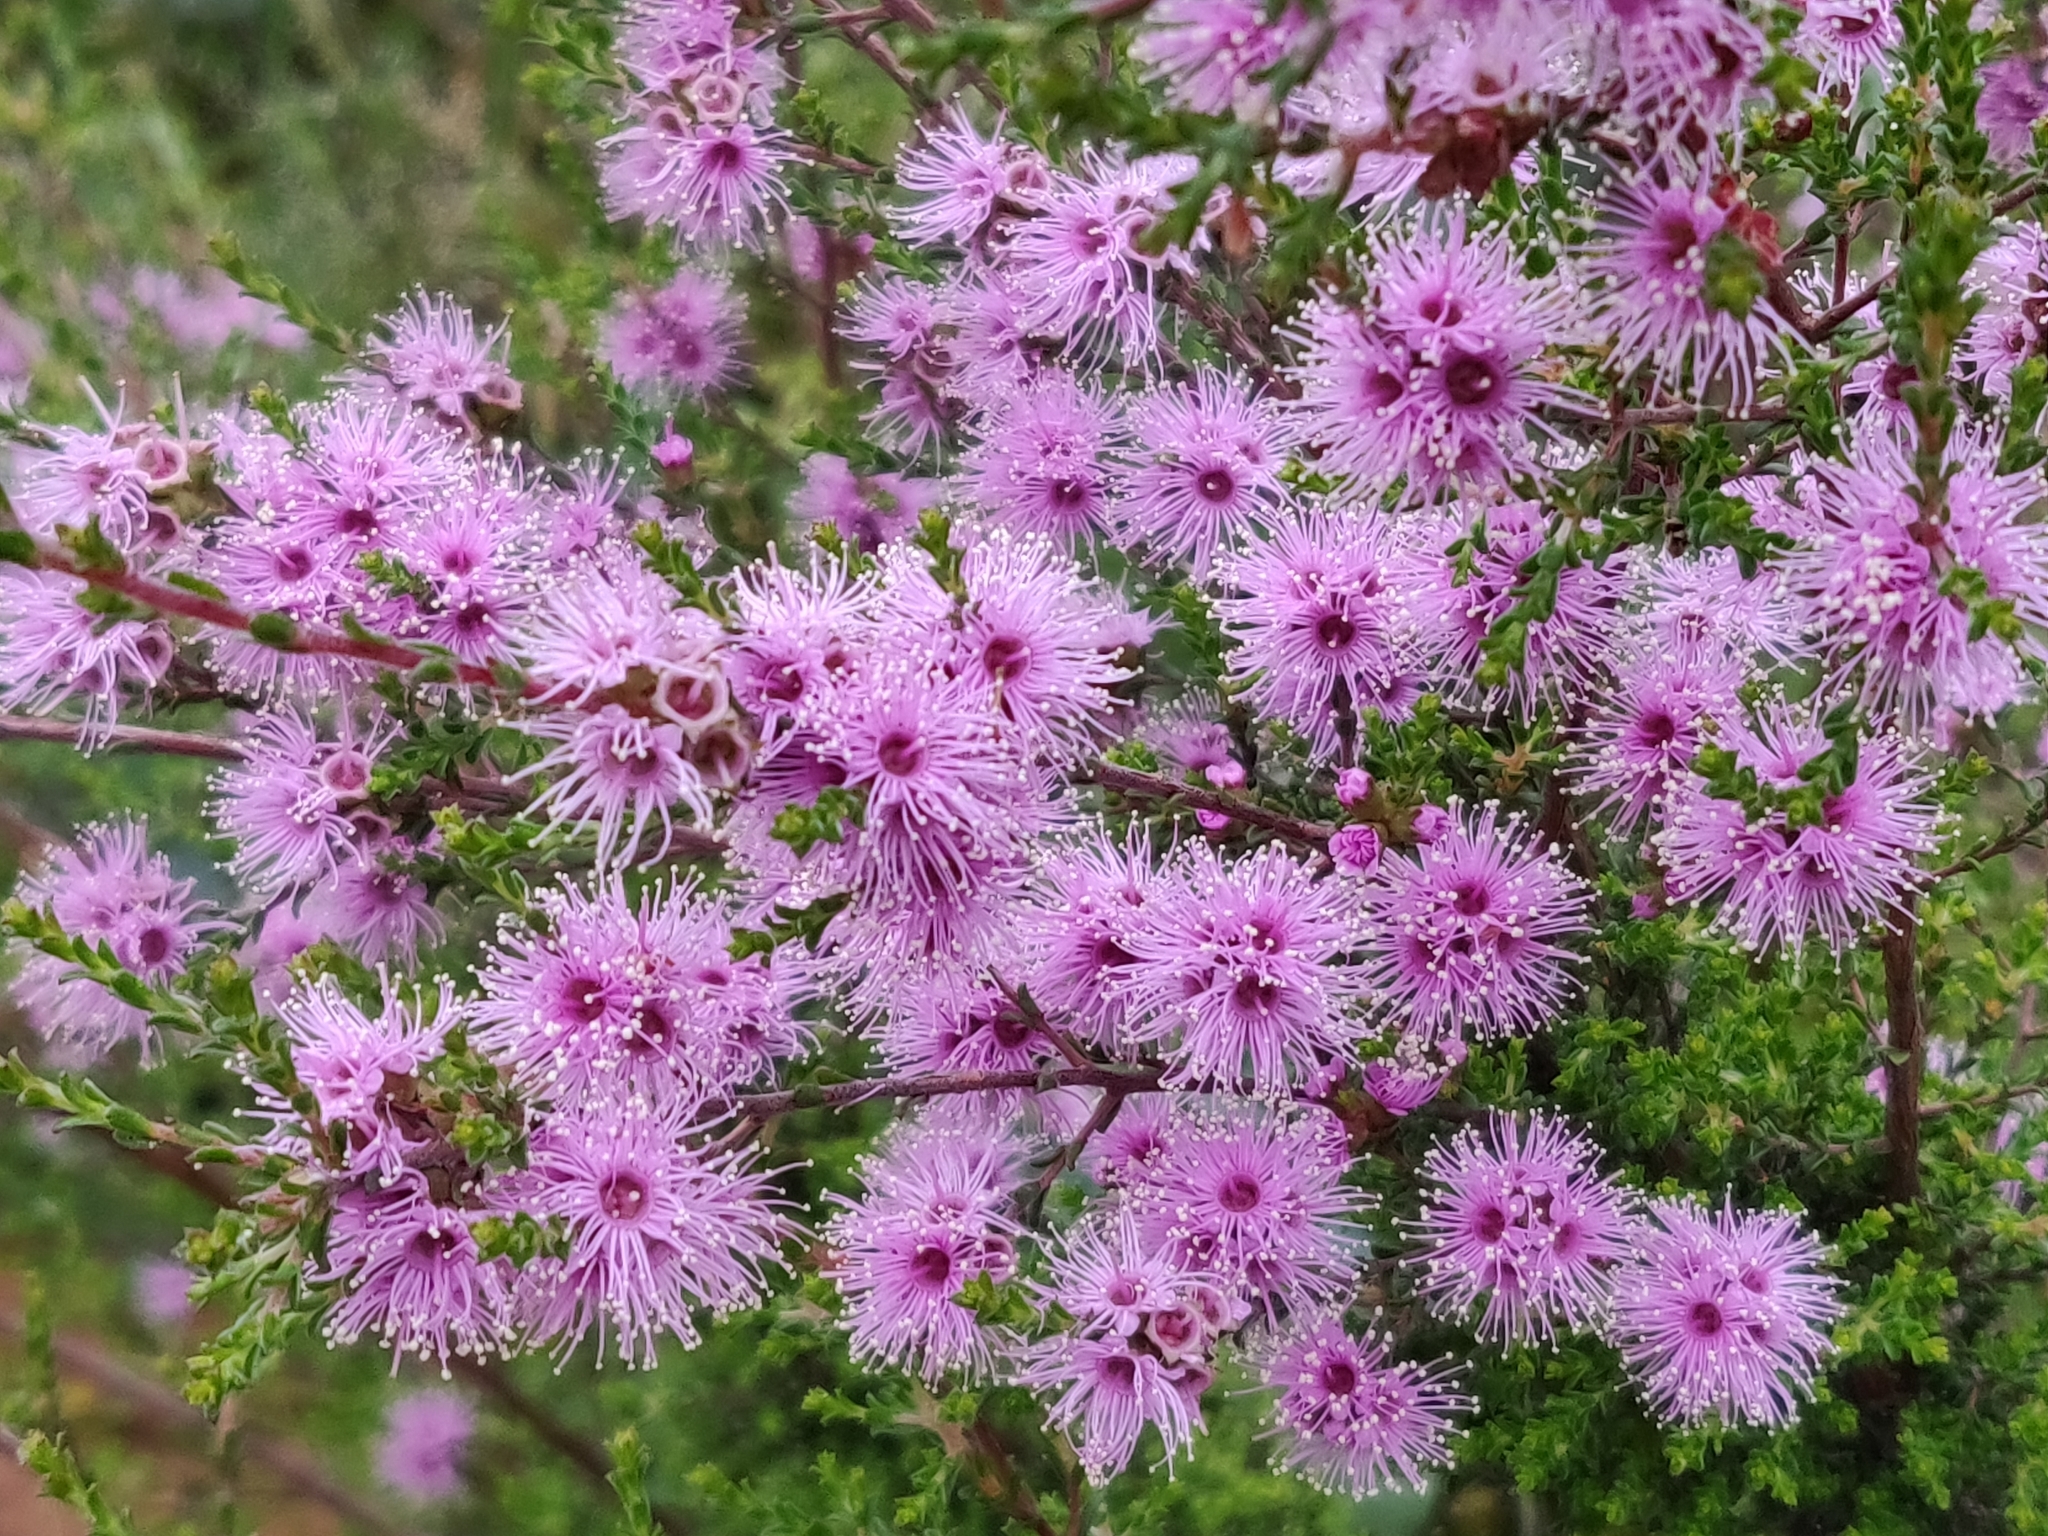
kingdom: Plantae
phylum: Tracheophyta
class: Magnoliopsida
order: Myrtales
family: Myrtaceae
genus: Kunzea
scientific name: Kunzea parvifolia
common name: Violet kunzea
